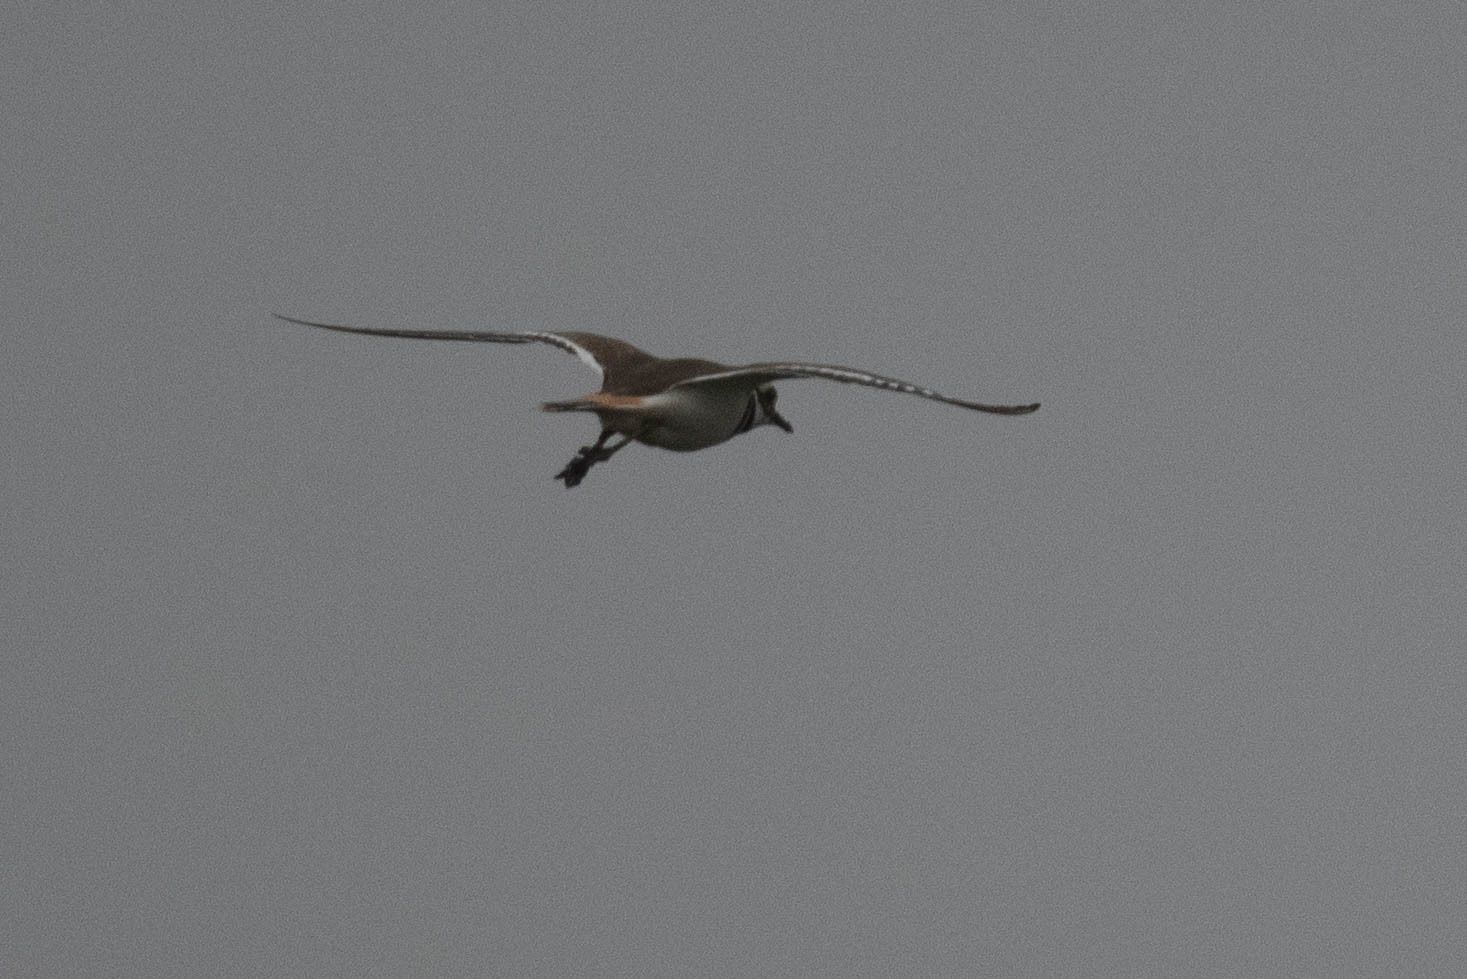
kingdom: Animalia
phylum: Chordata
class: Aves
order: Charadriiformes
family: Charadriidae
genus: Charadrius
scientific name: Charadrius vociferus
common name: Killdeer
